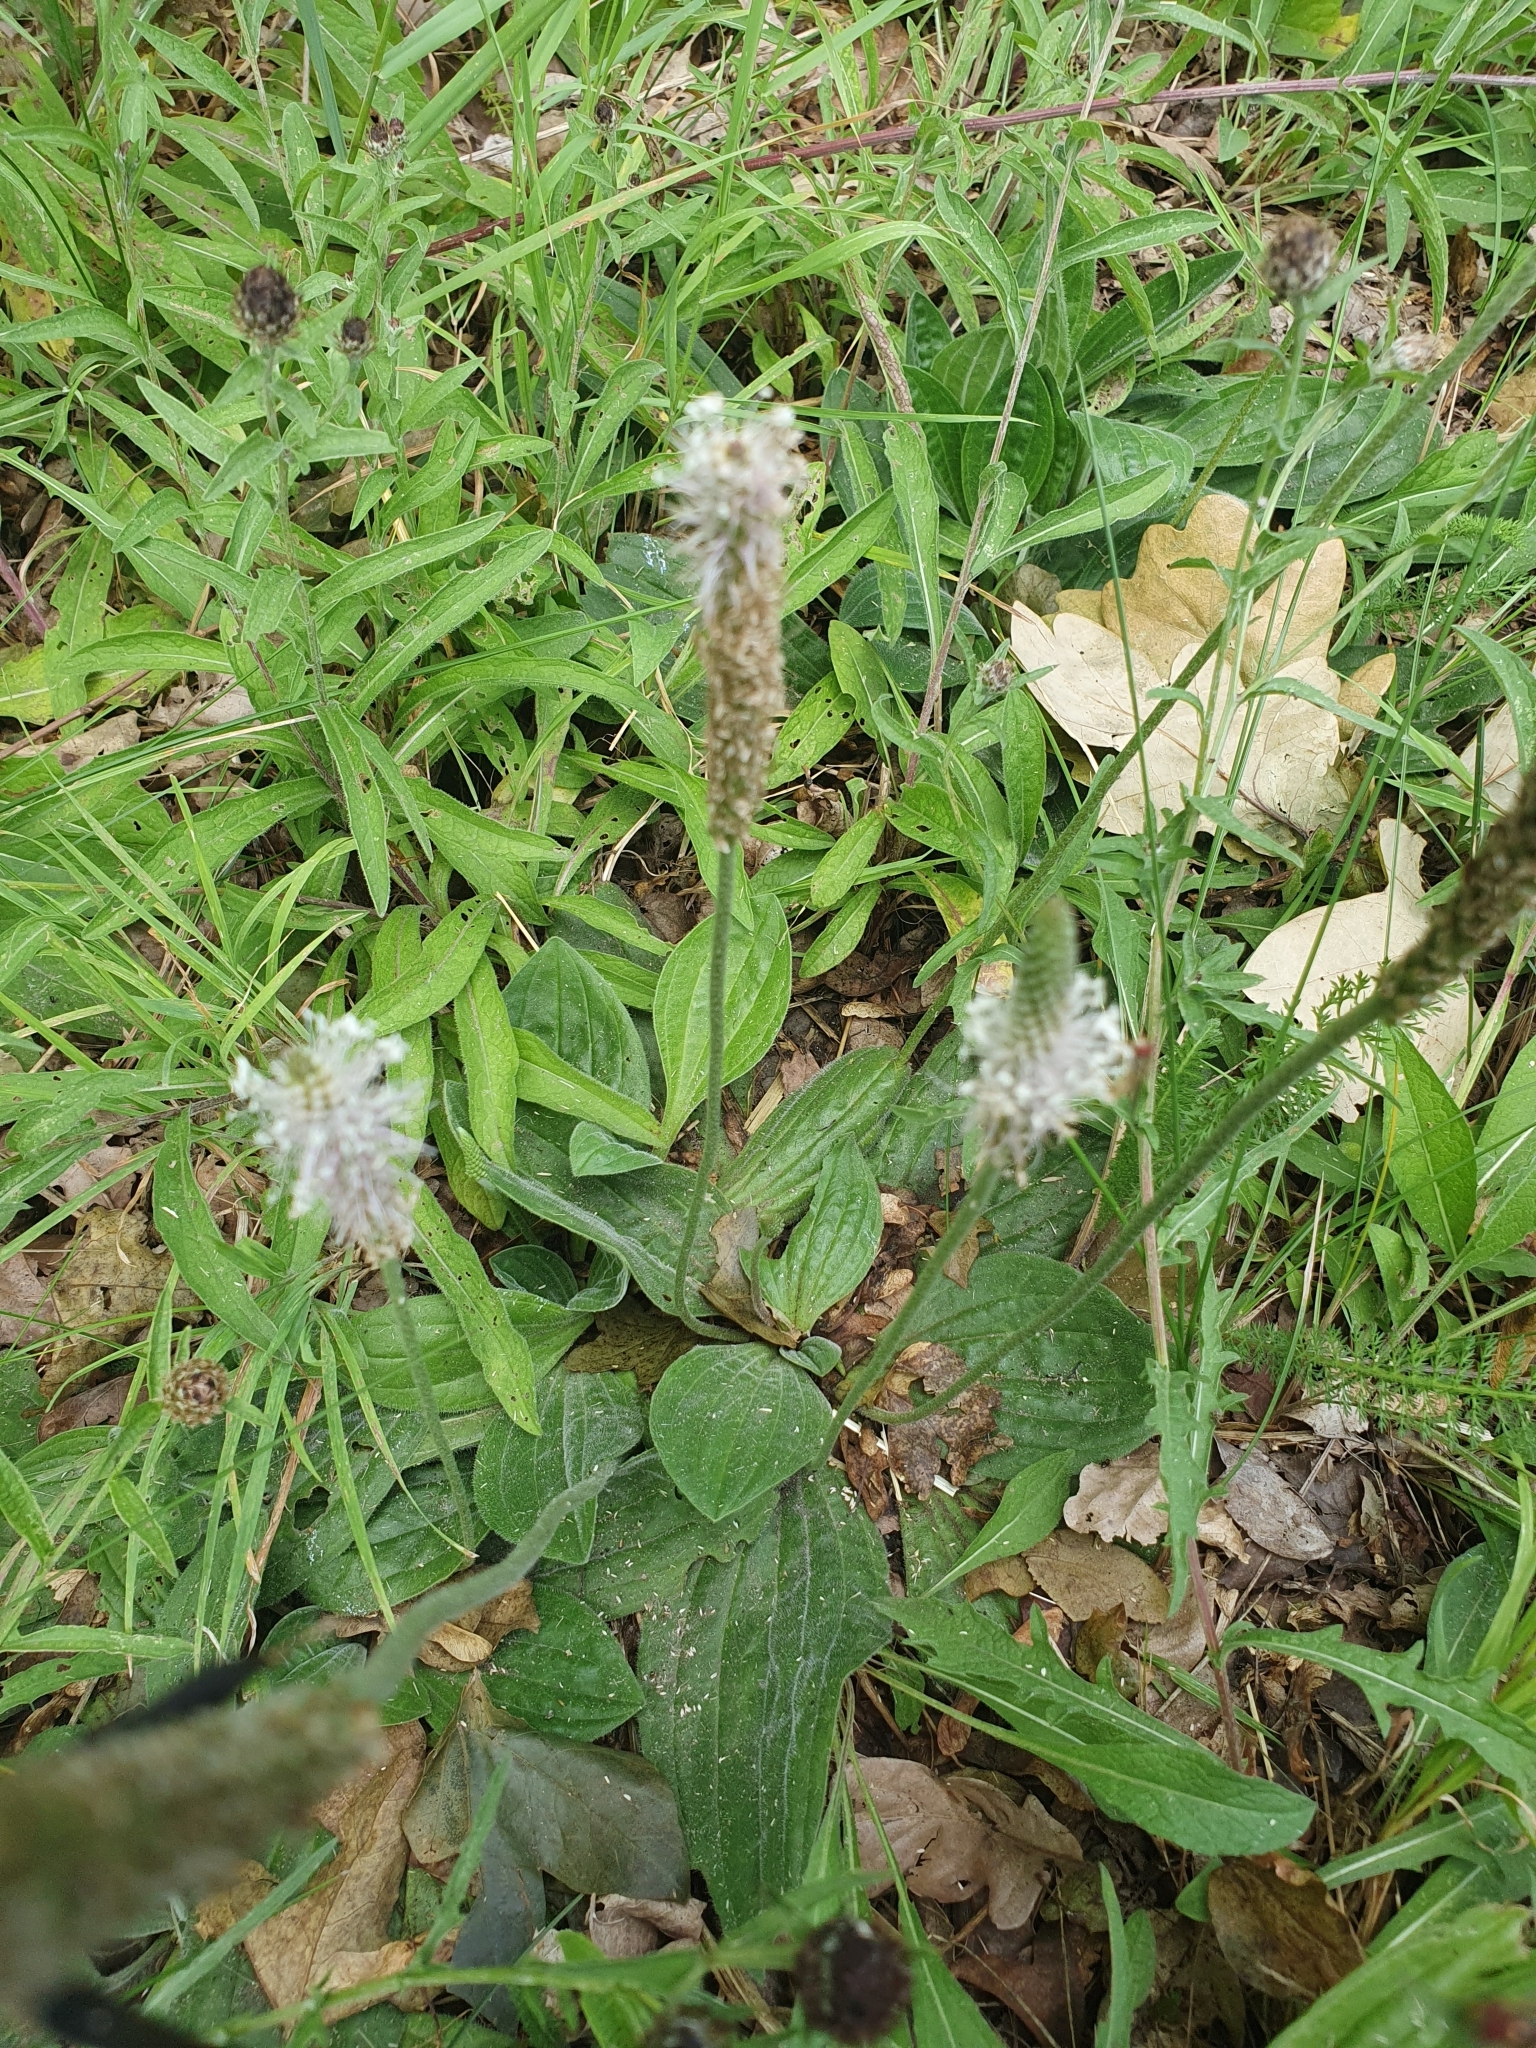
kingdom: Plantae
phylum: Tracheophyta
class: Magnoliopsida
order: Lamiales
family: Plantaginaceae
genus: Plantago
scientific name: Plantago media
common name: Hoary plantain
